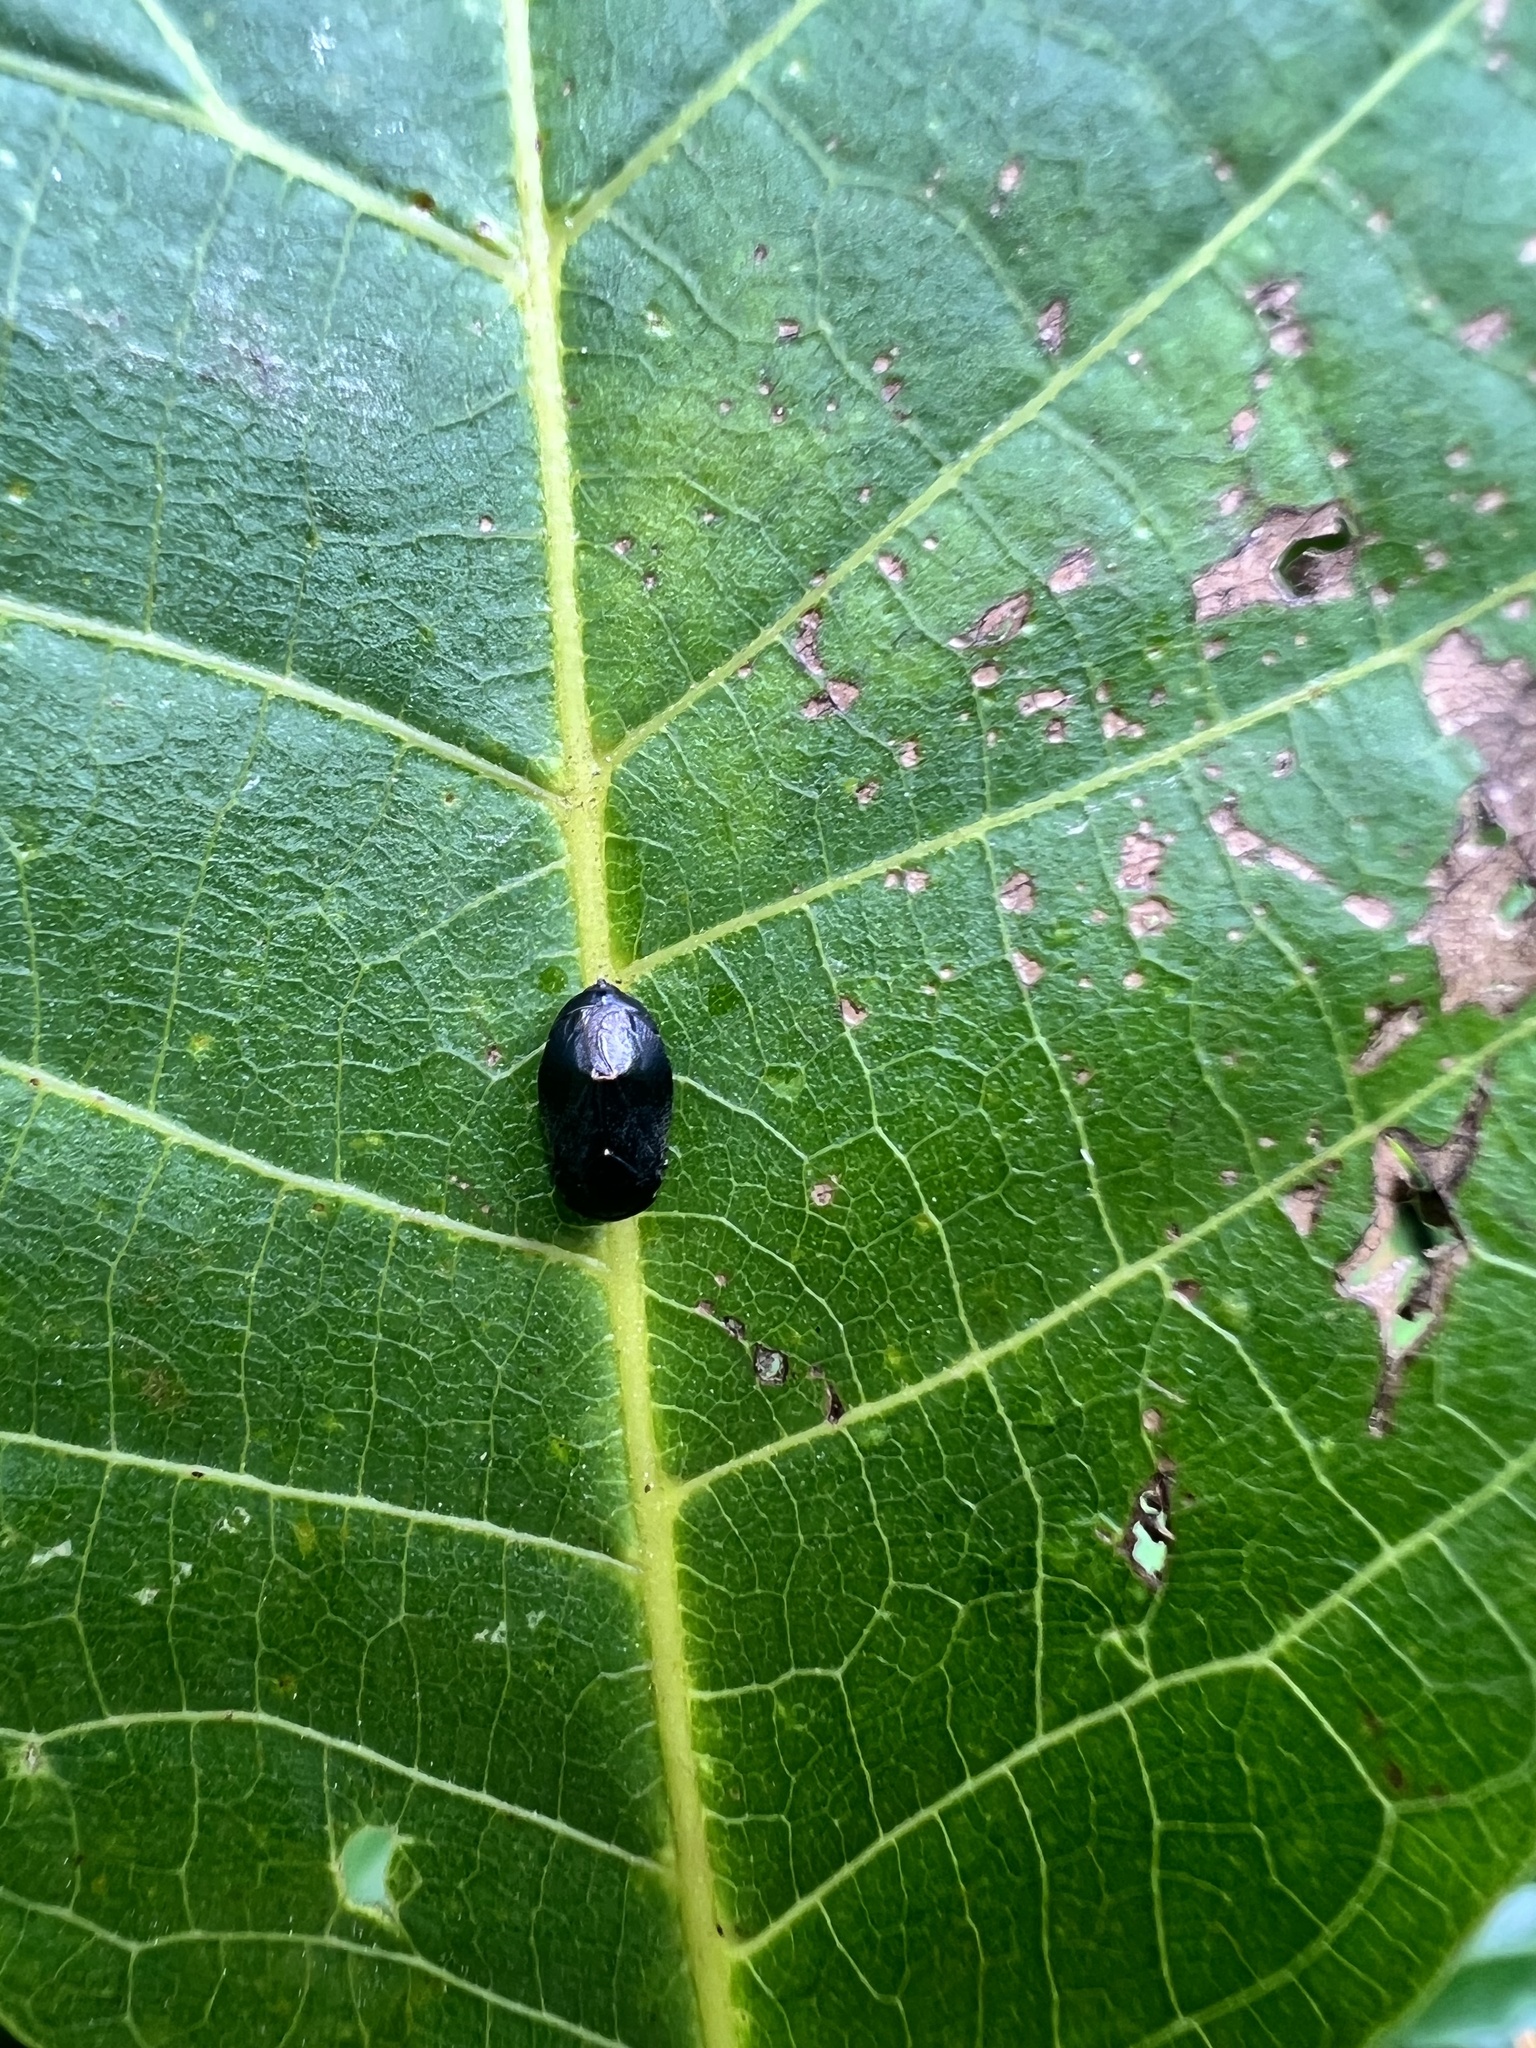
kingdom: Animalia
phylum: Arthropoda
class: Insecta
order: Hemiptera
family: Cicadellidae
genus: Penthimia
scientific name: Penthimia nigra
